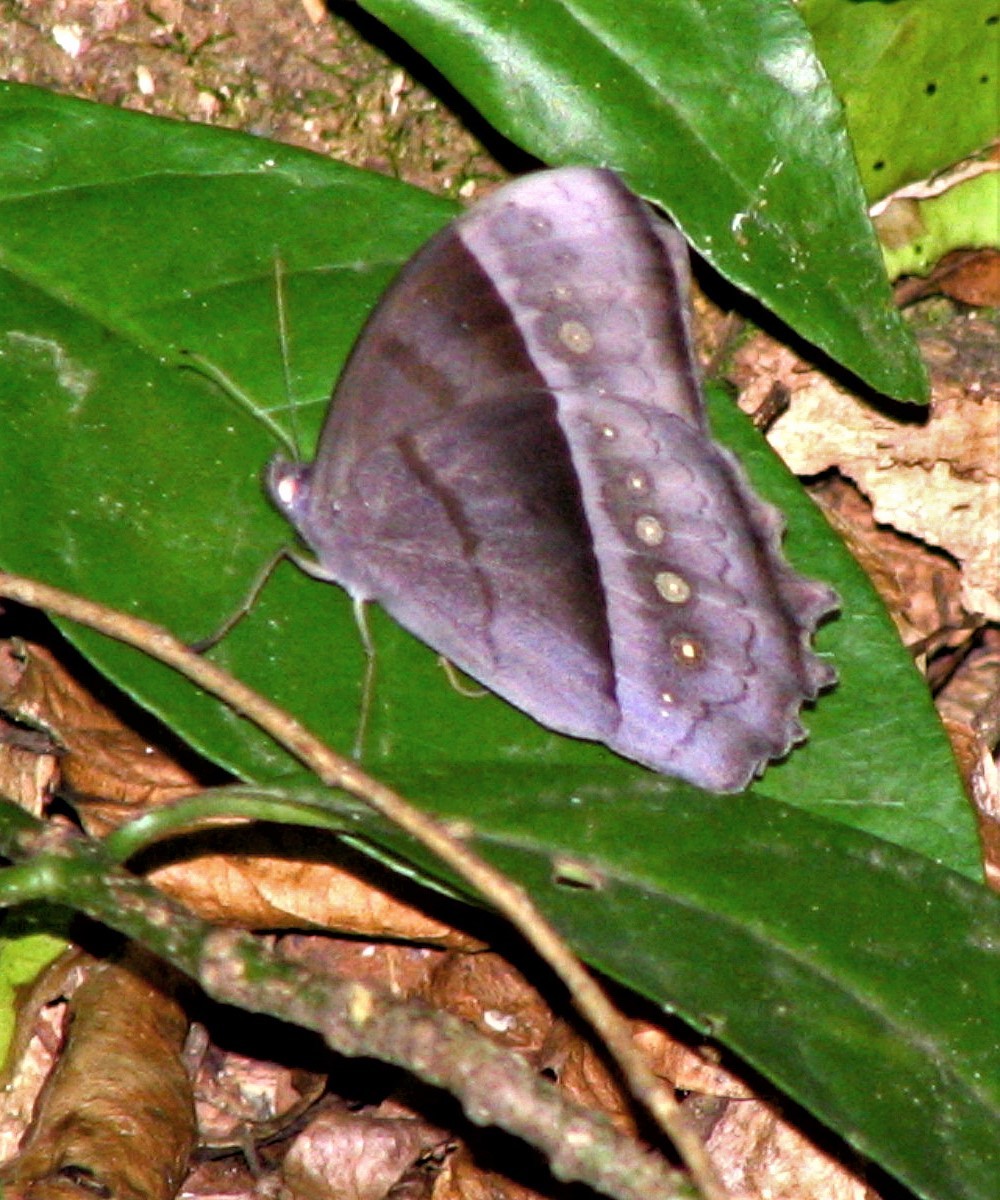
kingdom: Animalia
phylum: Arthropoda
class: Insecta
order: Lepidoptera
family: Nymphalidae
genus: Taygetis
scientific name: Taygetis thamyra
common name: Thamyra satyr
